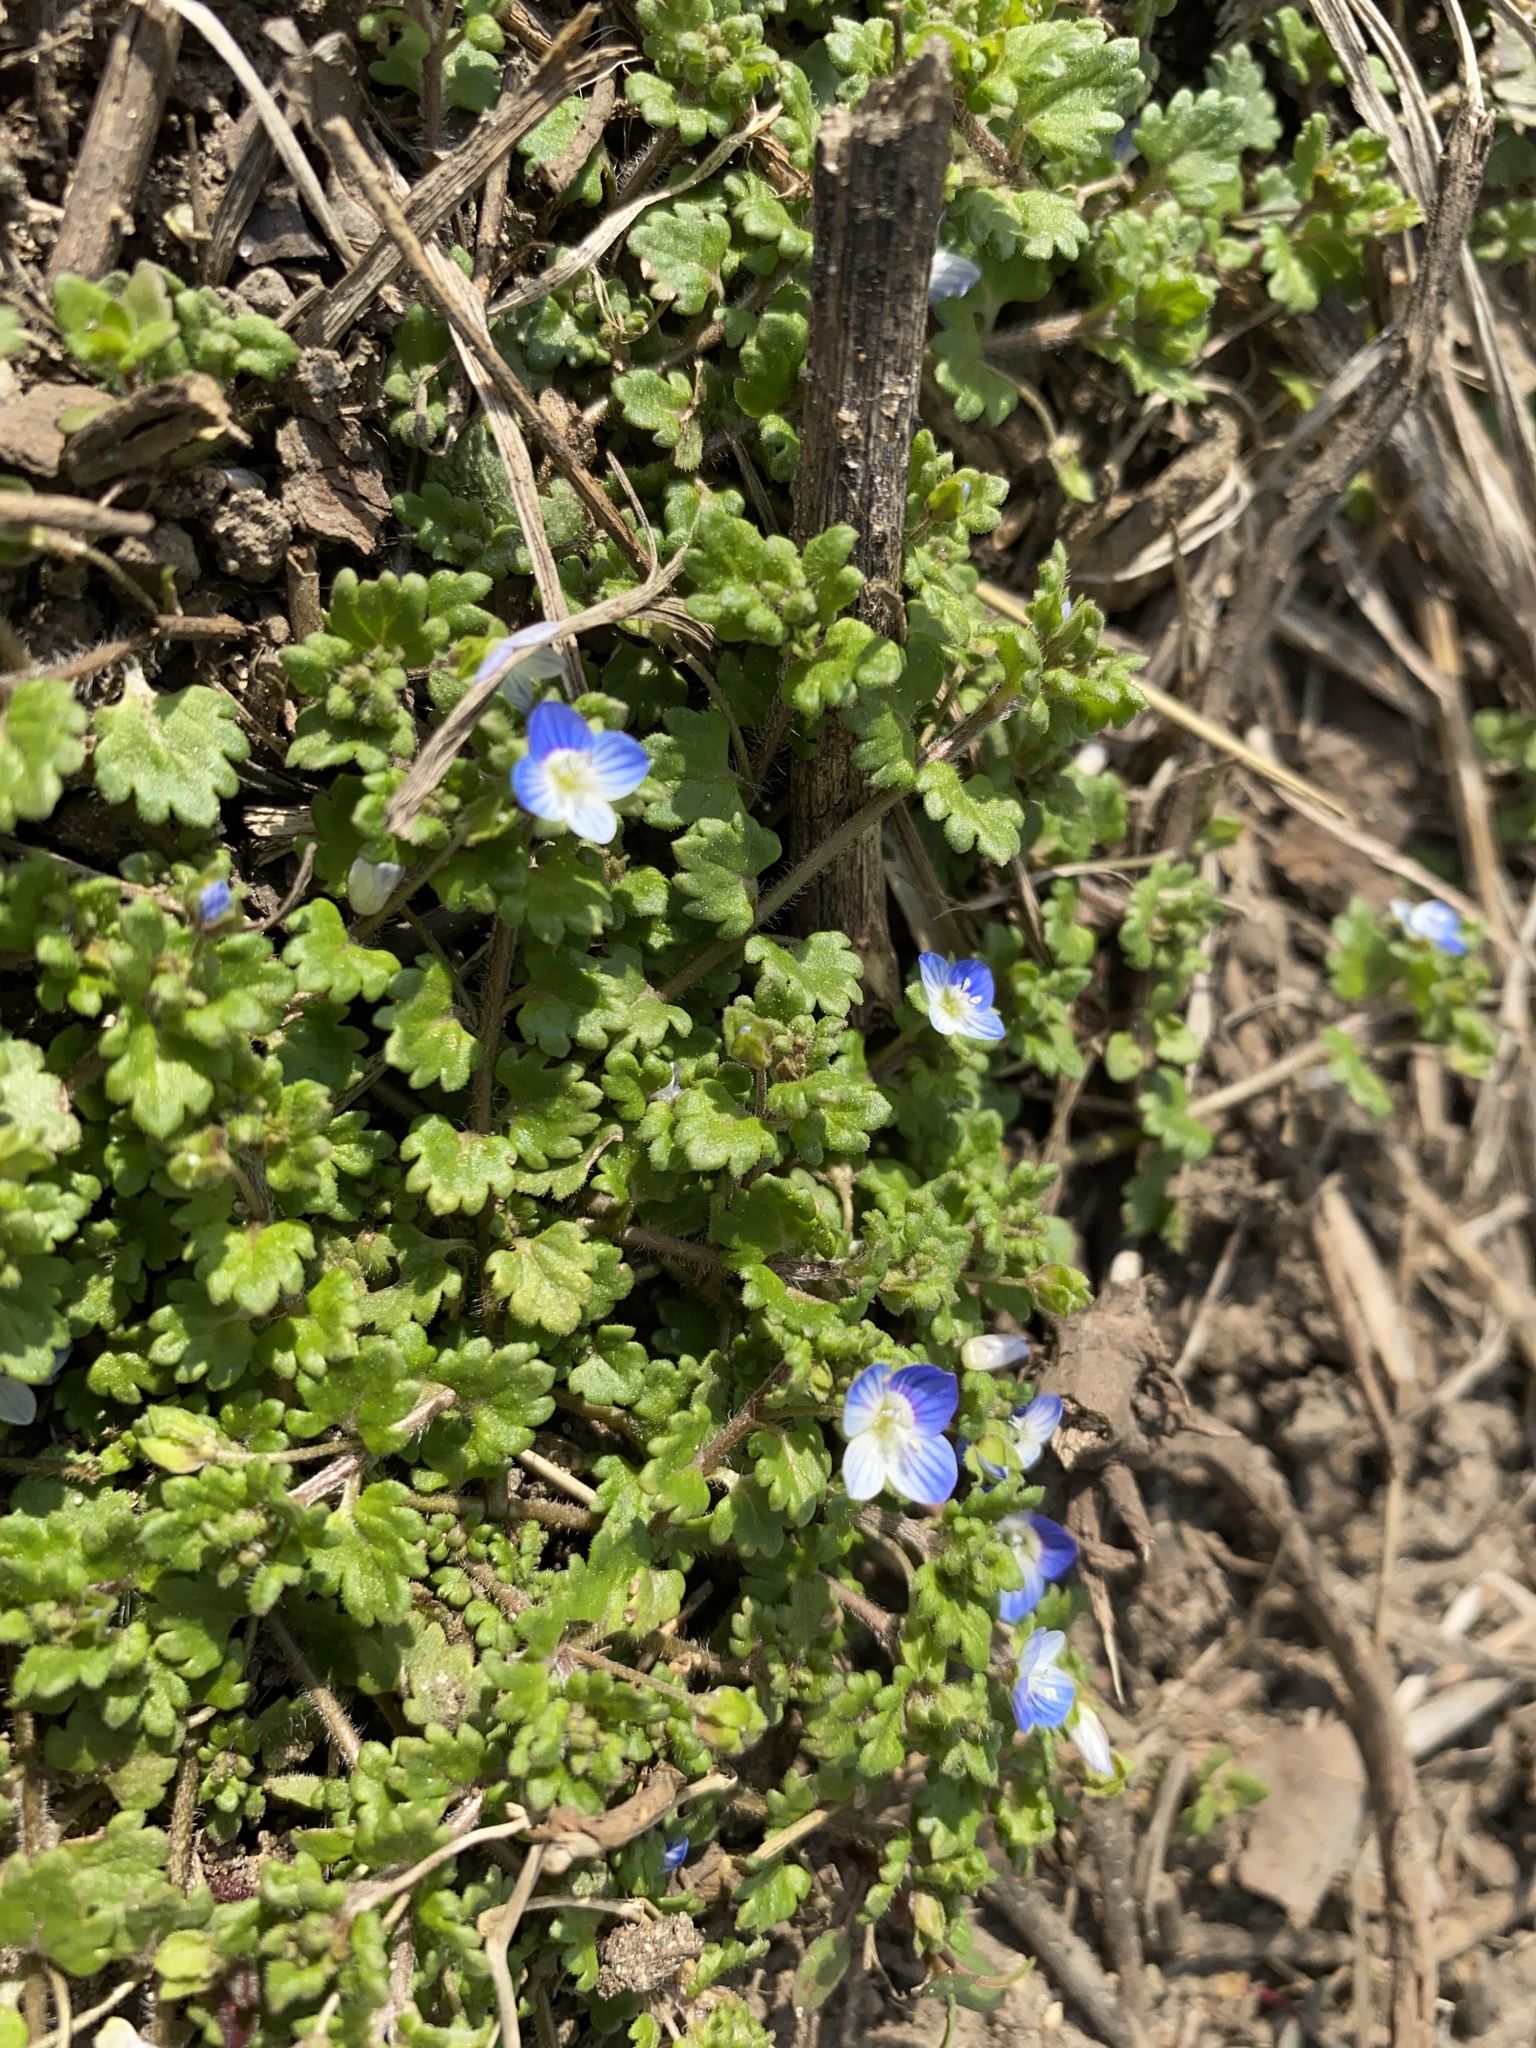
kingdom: Plantae
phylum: Tracheophyta
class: Magnoliopsida
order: Lamiales
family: Plantaginaceae
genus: Veronica
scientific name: Veronica polita
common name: Grey field-speedwell
